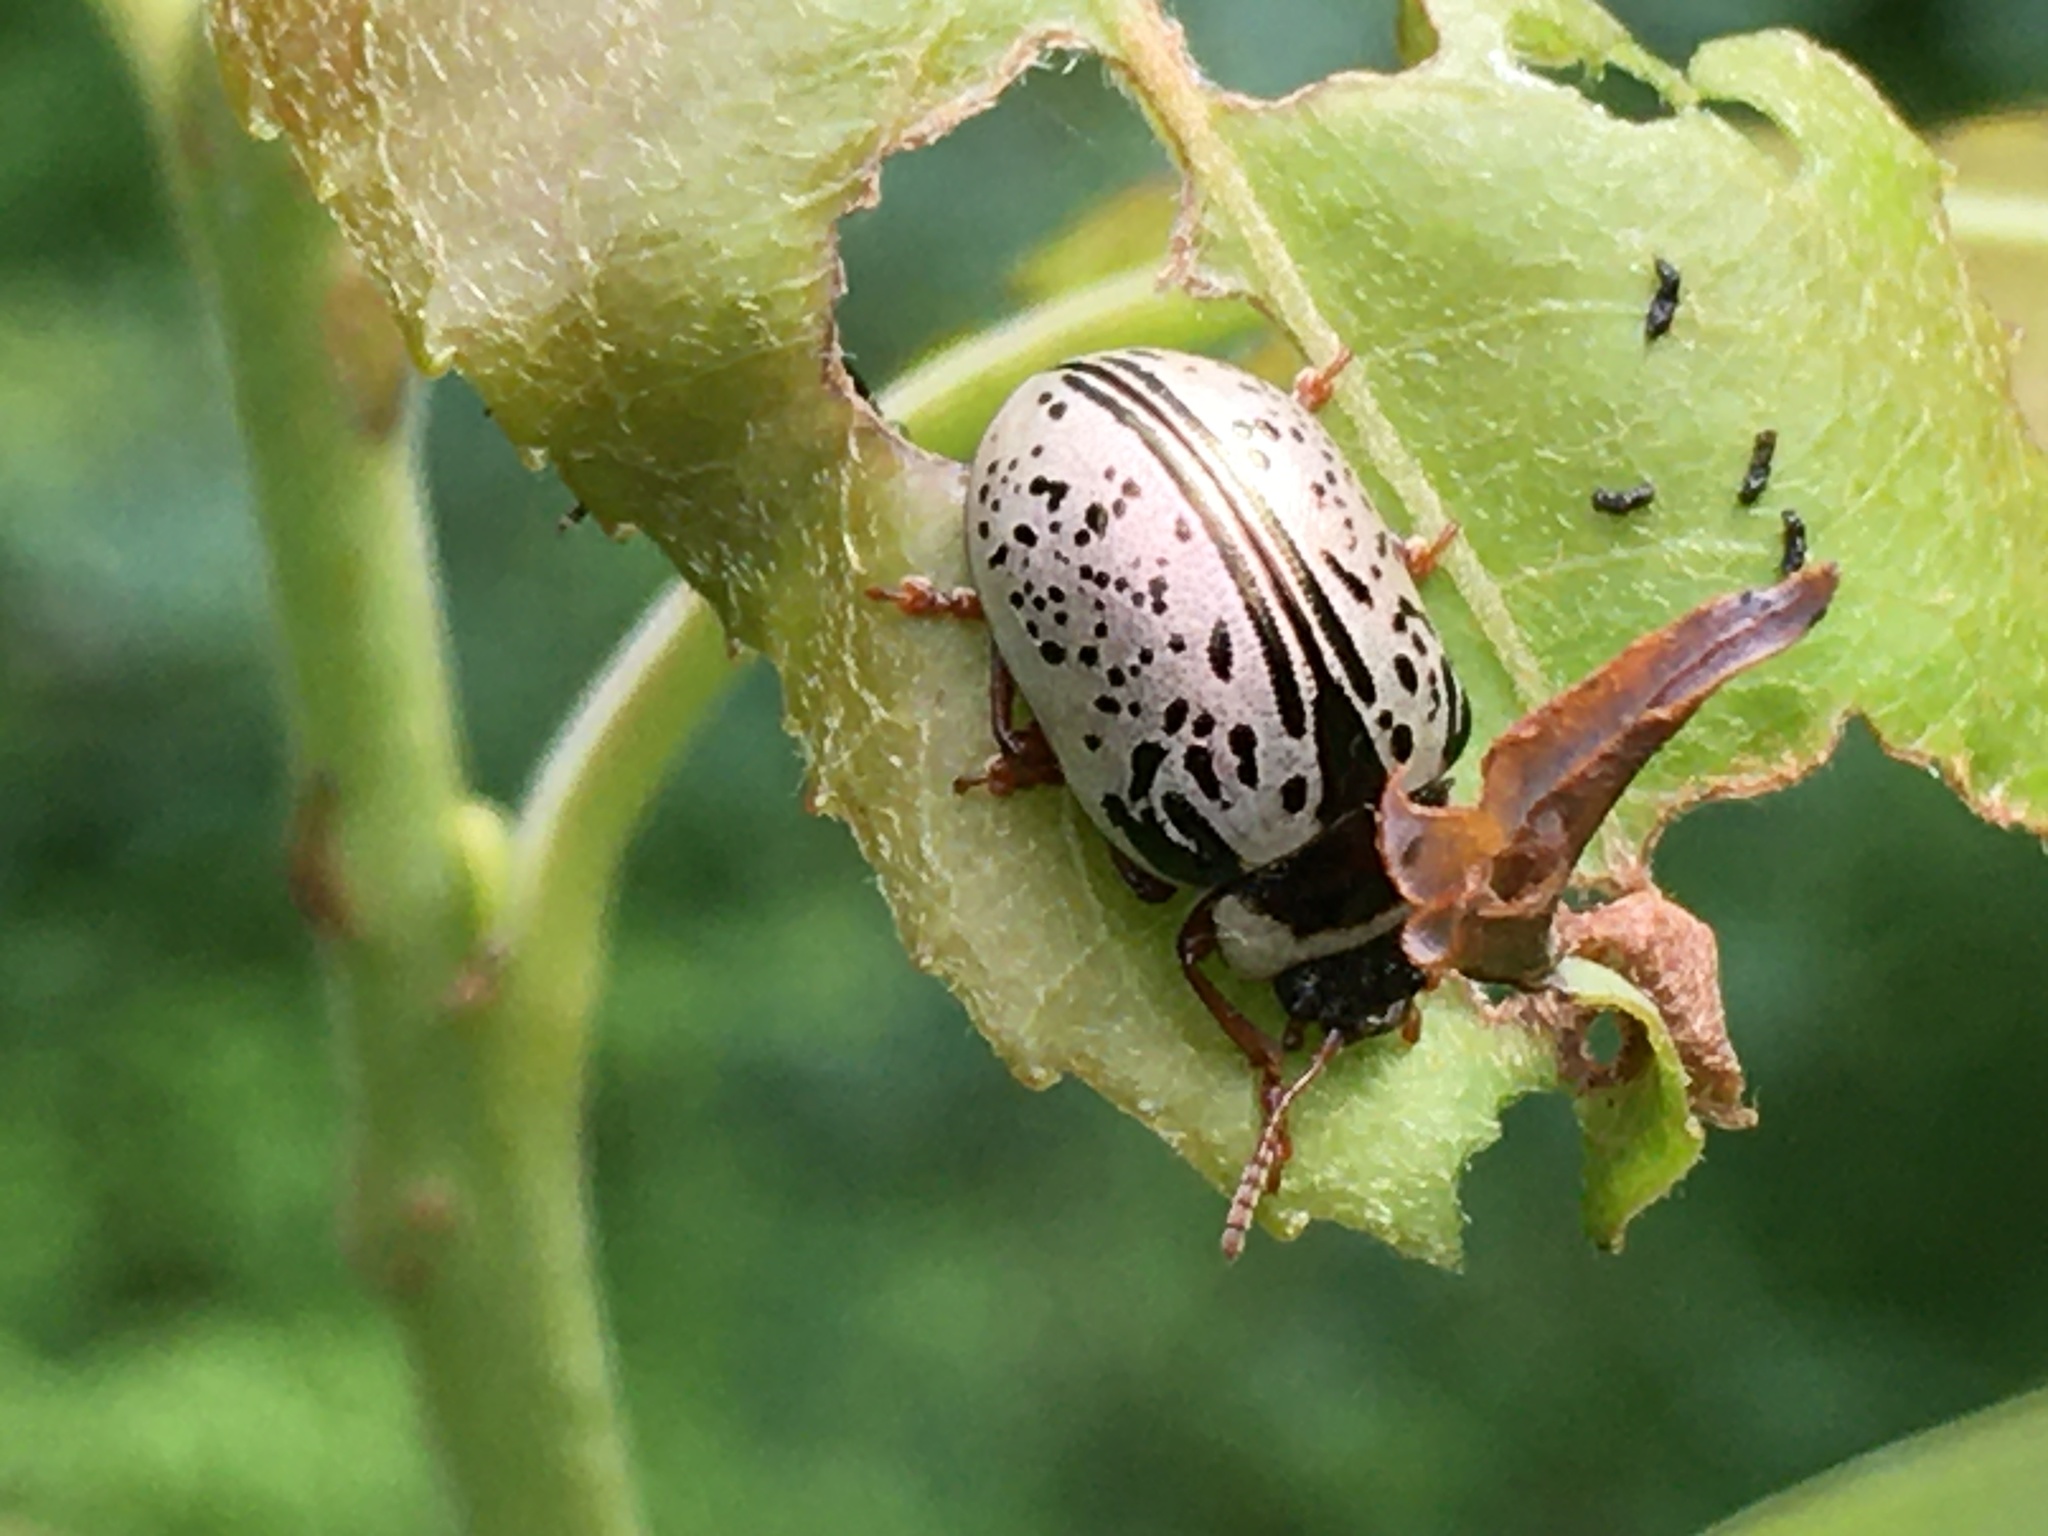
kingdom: Animalia
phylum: Arthropoda
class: Insecta
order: Coleoptera
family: Chrysomelidae
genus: Calligrapha
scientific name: Calligrapha multipunctata
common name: Common willow calligrapher beetle
